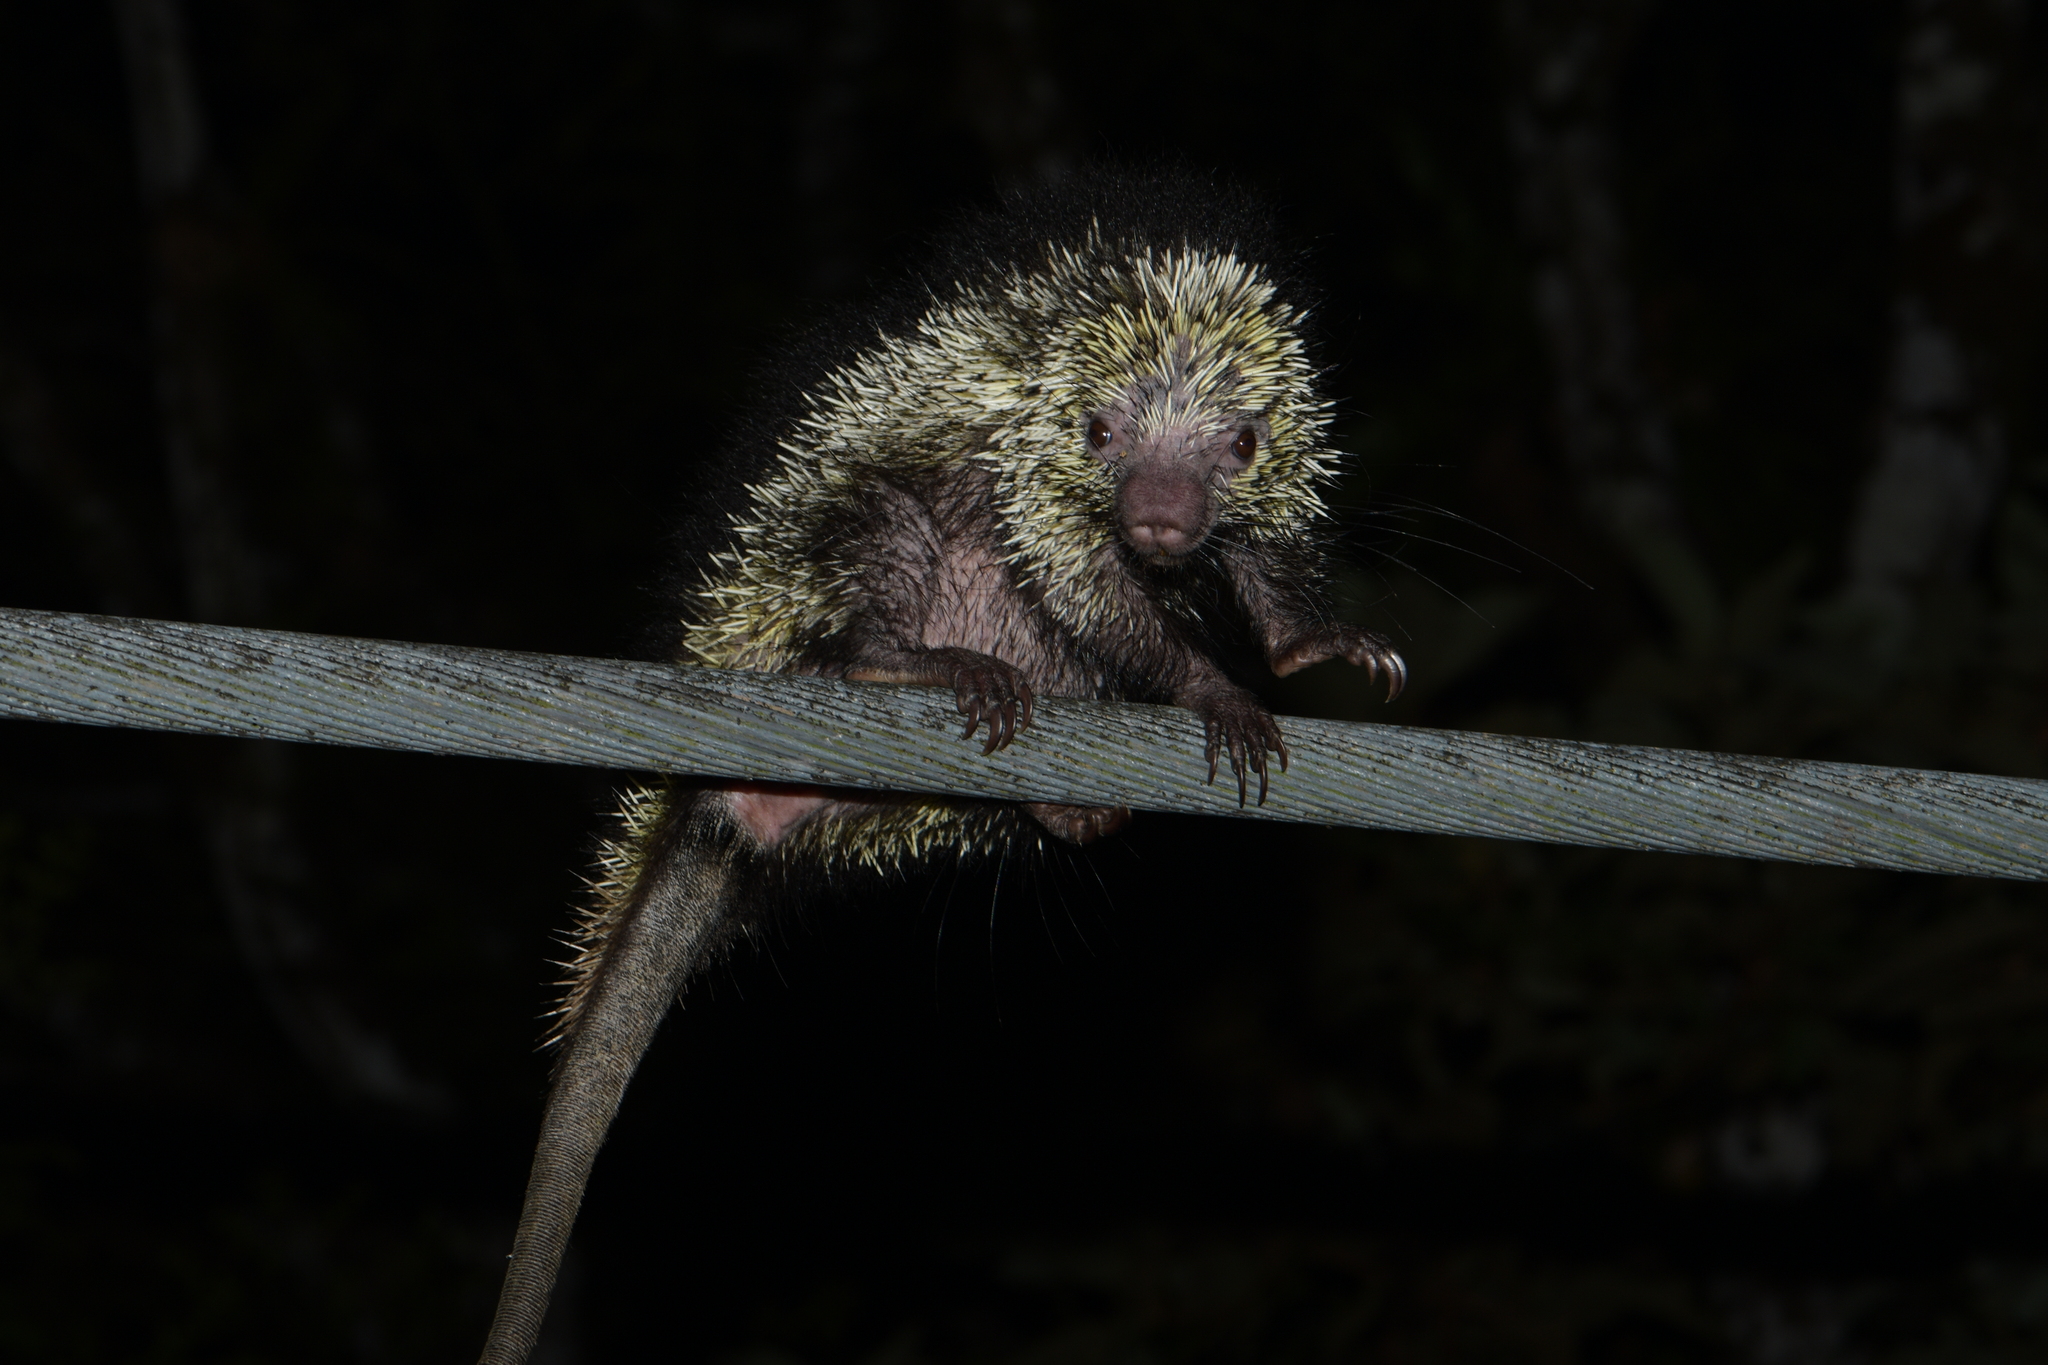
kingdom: Animalia
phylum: Chordata
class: Mammalia
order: Rodentia
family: Erethizontidae
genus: Sphiggurus
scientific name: Sphiggurus mexicanus
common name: Mexican hairy dwarf porcupine
